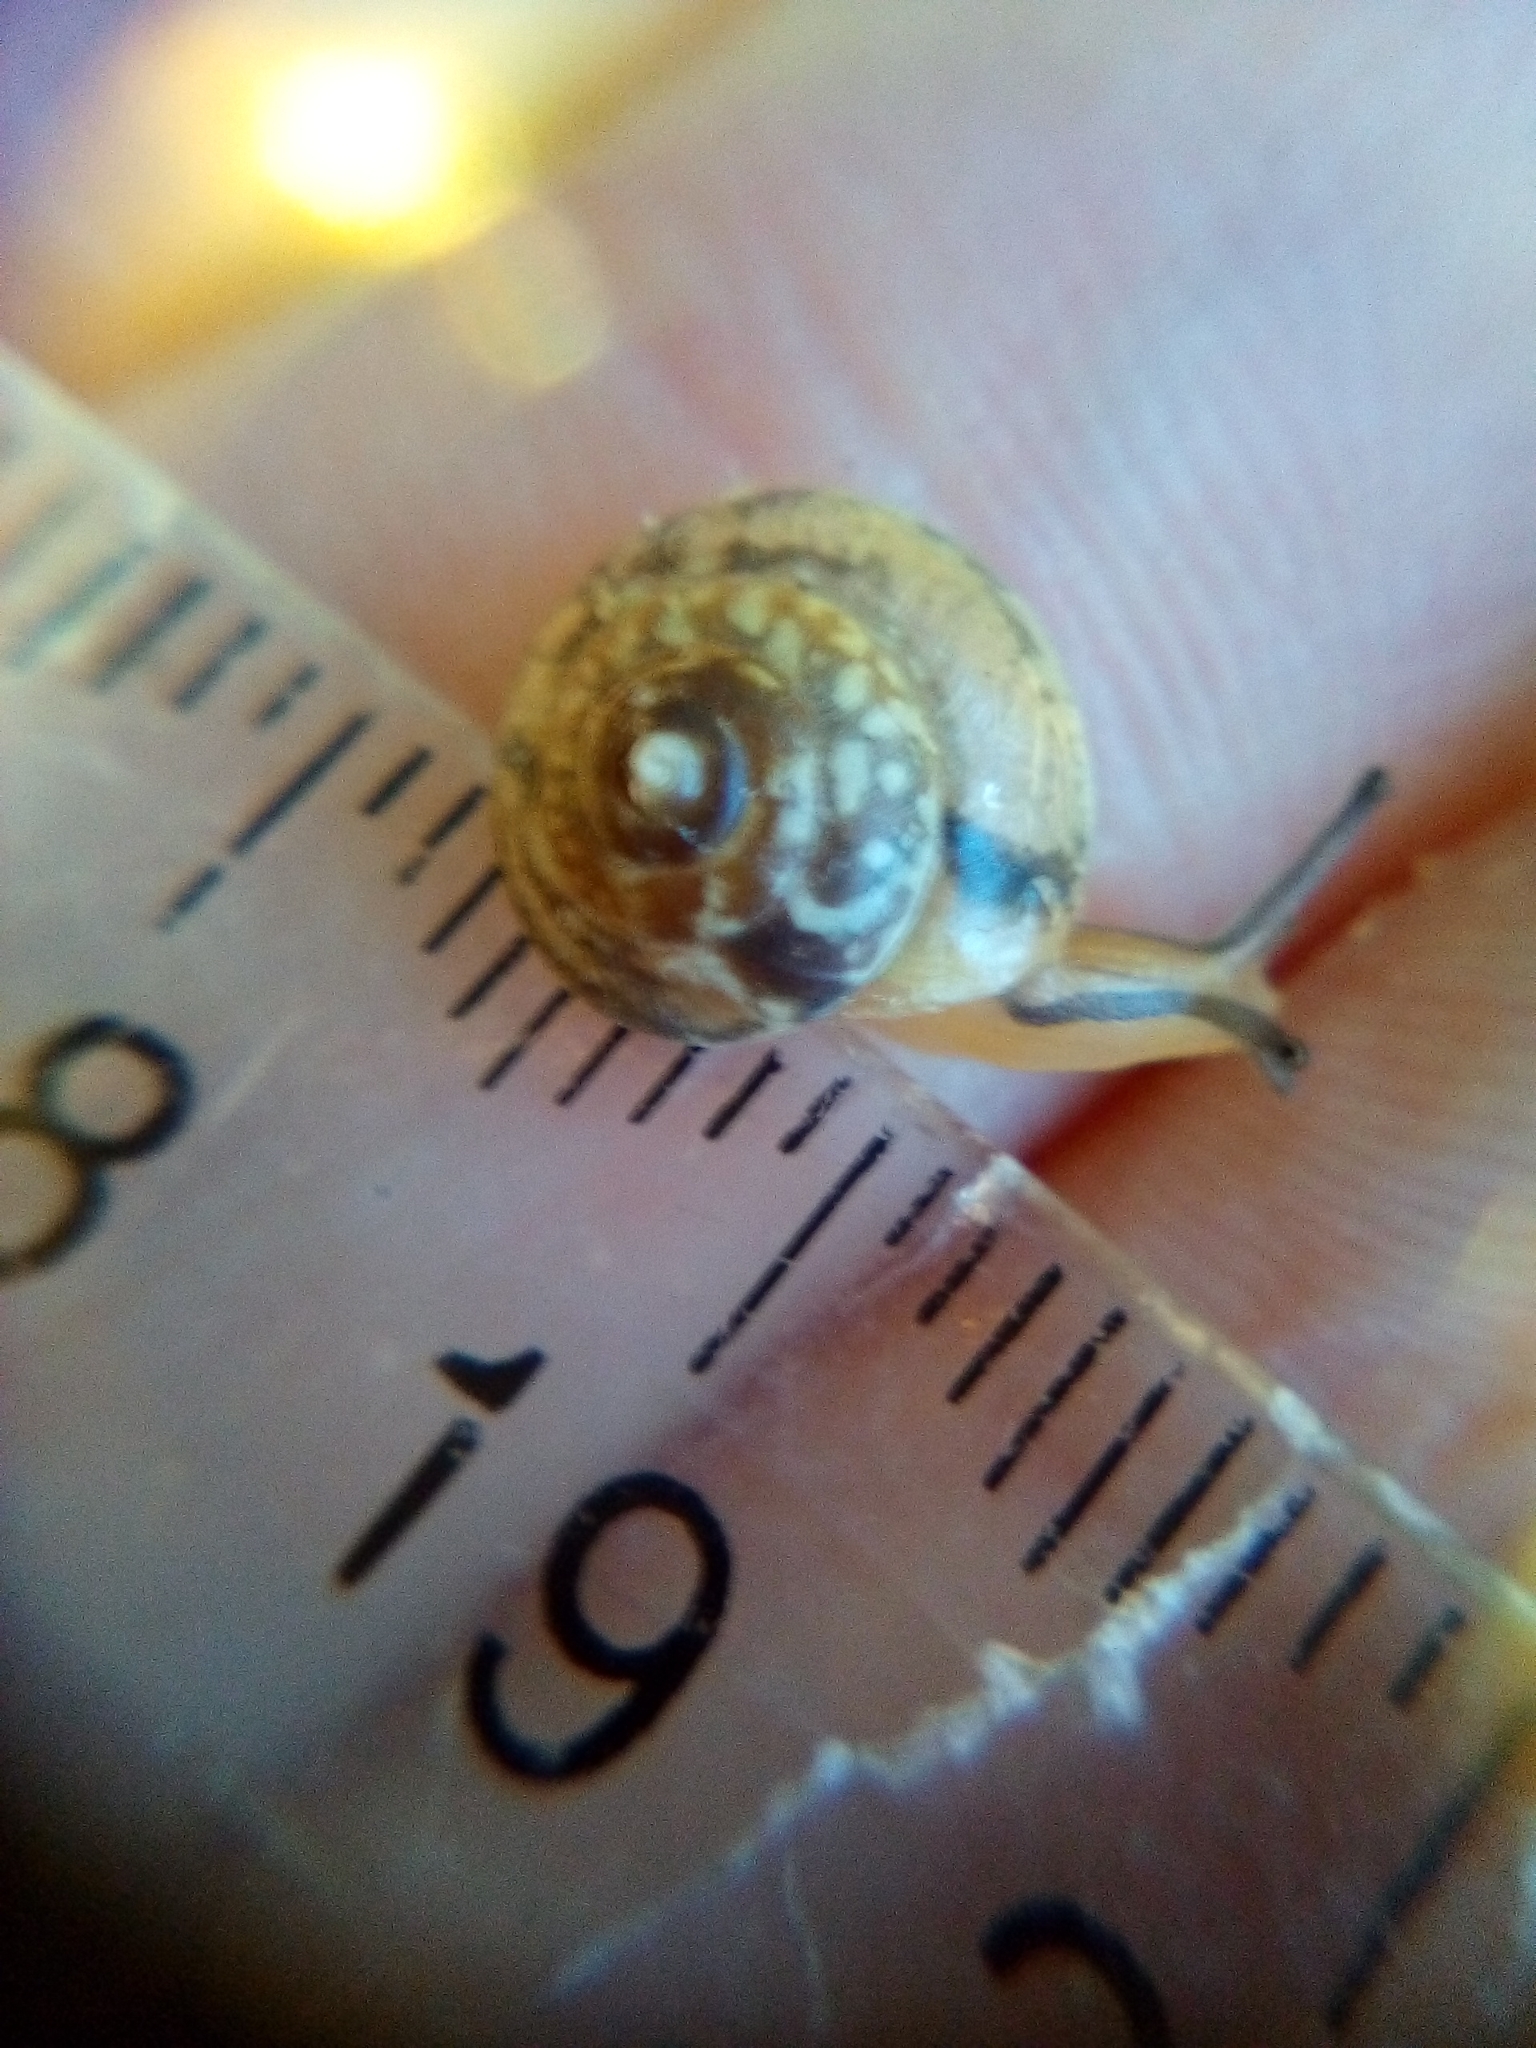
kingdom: Animalia
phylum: Mollusca
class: Gastropoda
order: Stylommatophora
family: Hygromiidae
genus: Hygromia
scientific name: Hygromia cinctella
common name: Girdled snail
